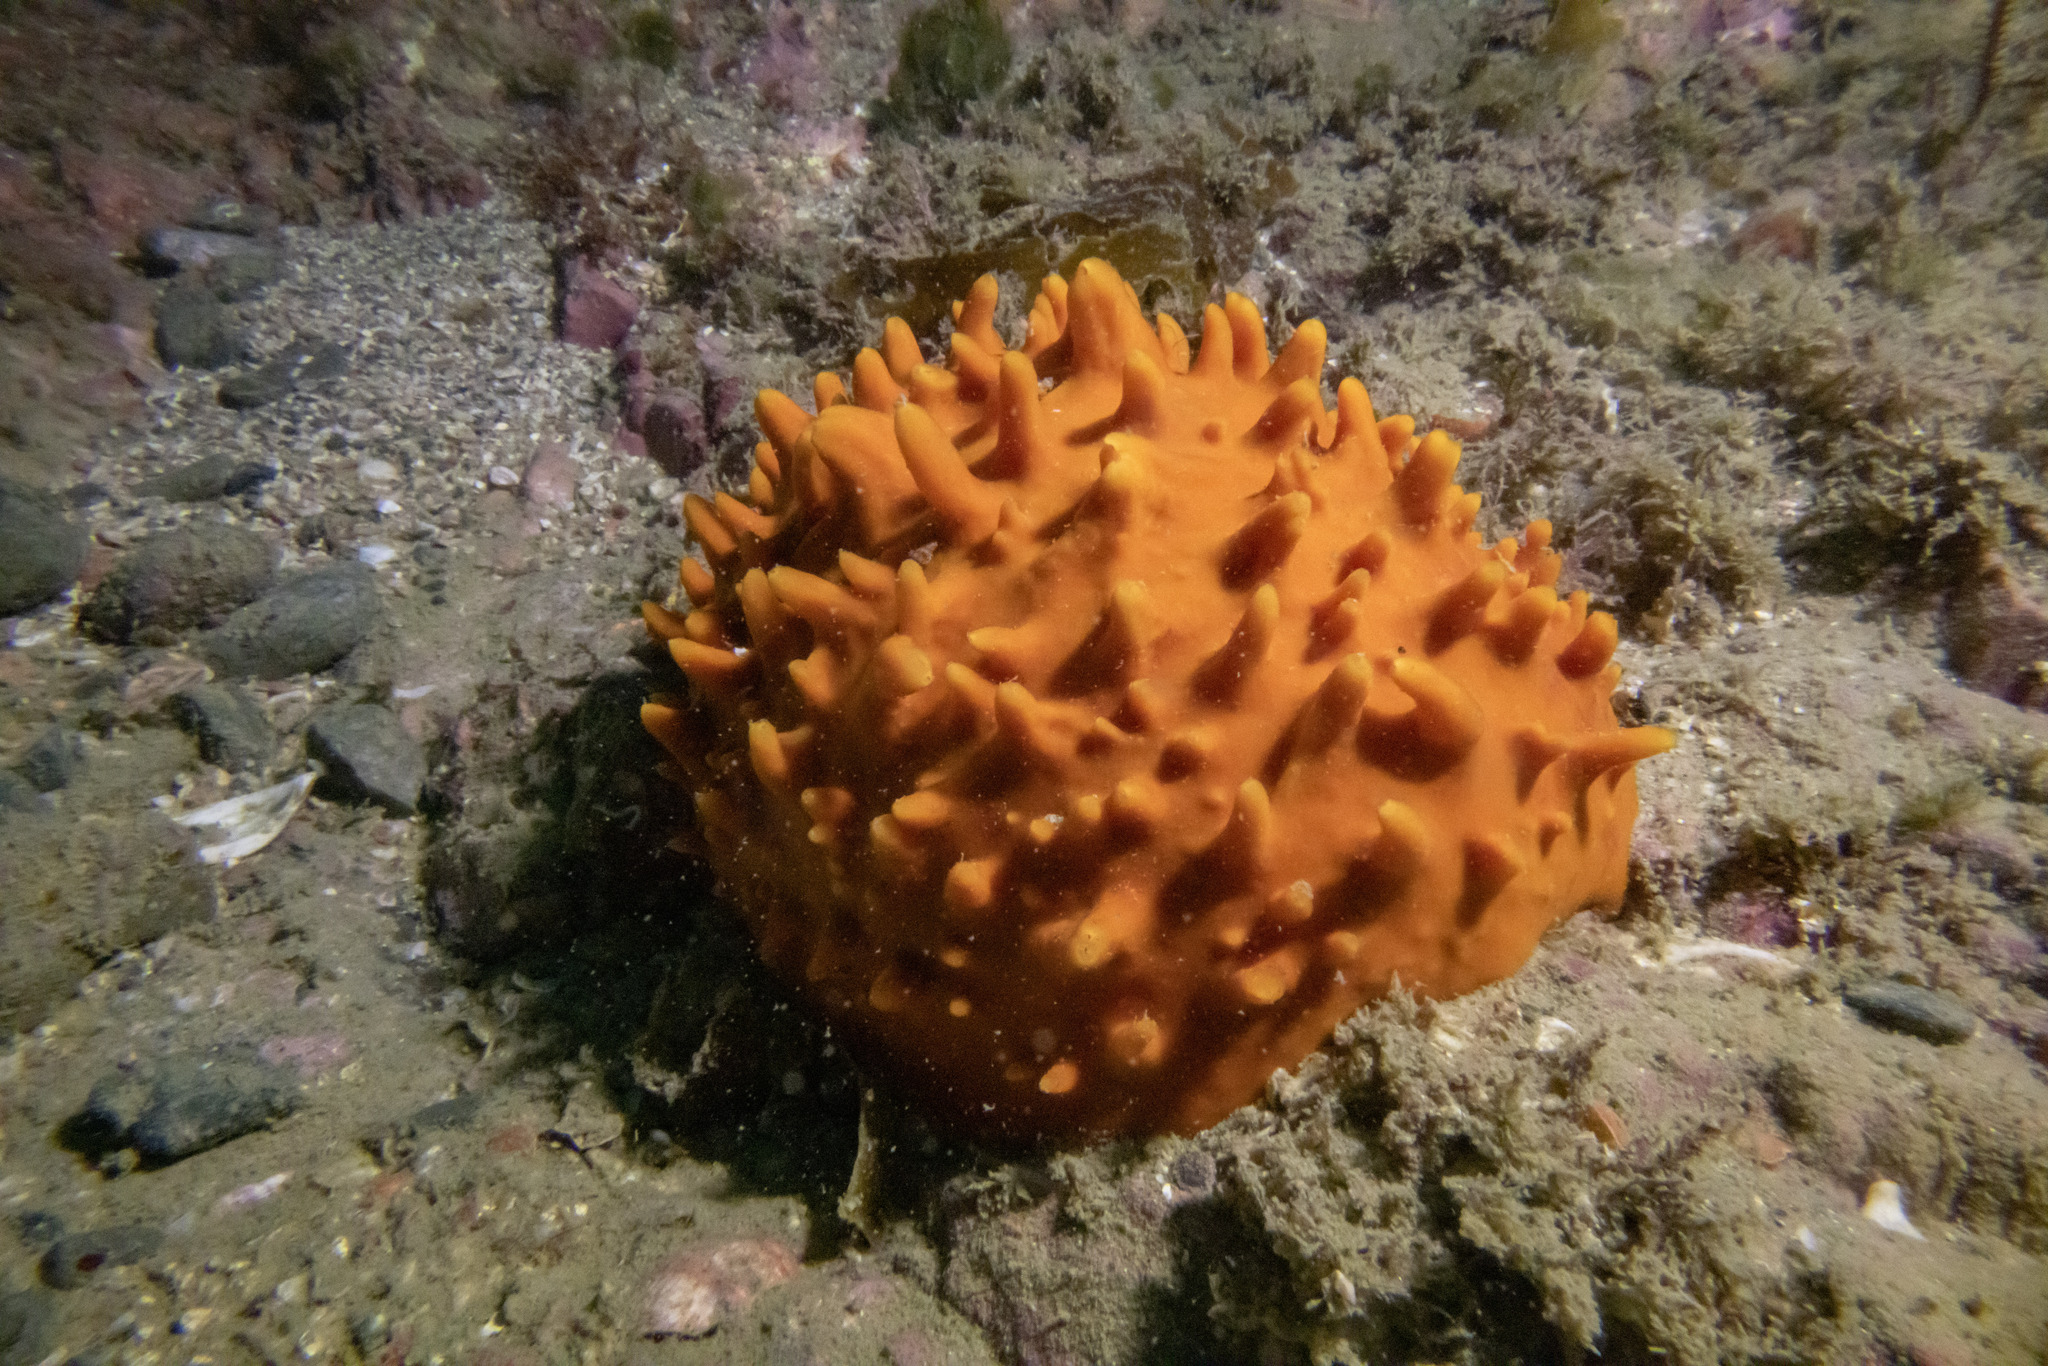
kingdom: Animalia
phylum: Porifera
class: Demospongiae
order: Polymastiida
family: Polymastiidae
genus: Polymastia
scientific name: Polymastia aurantia
